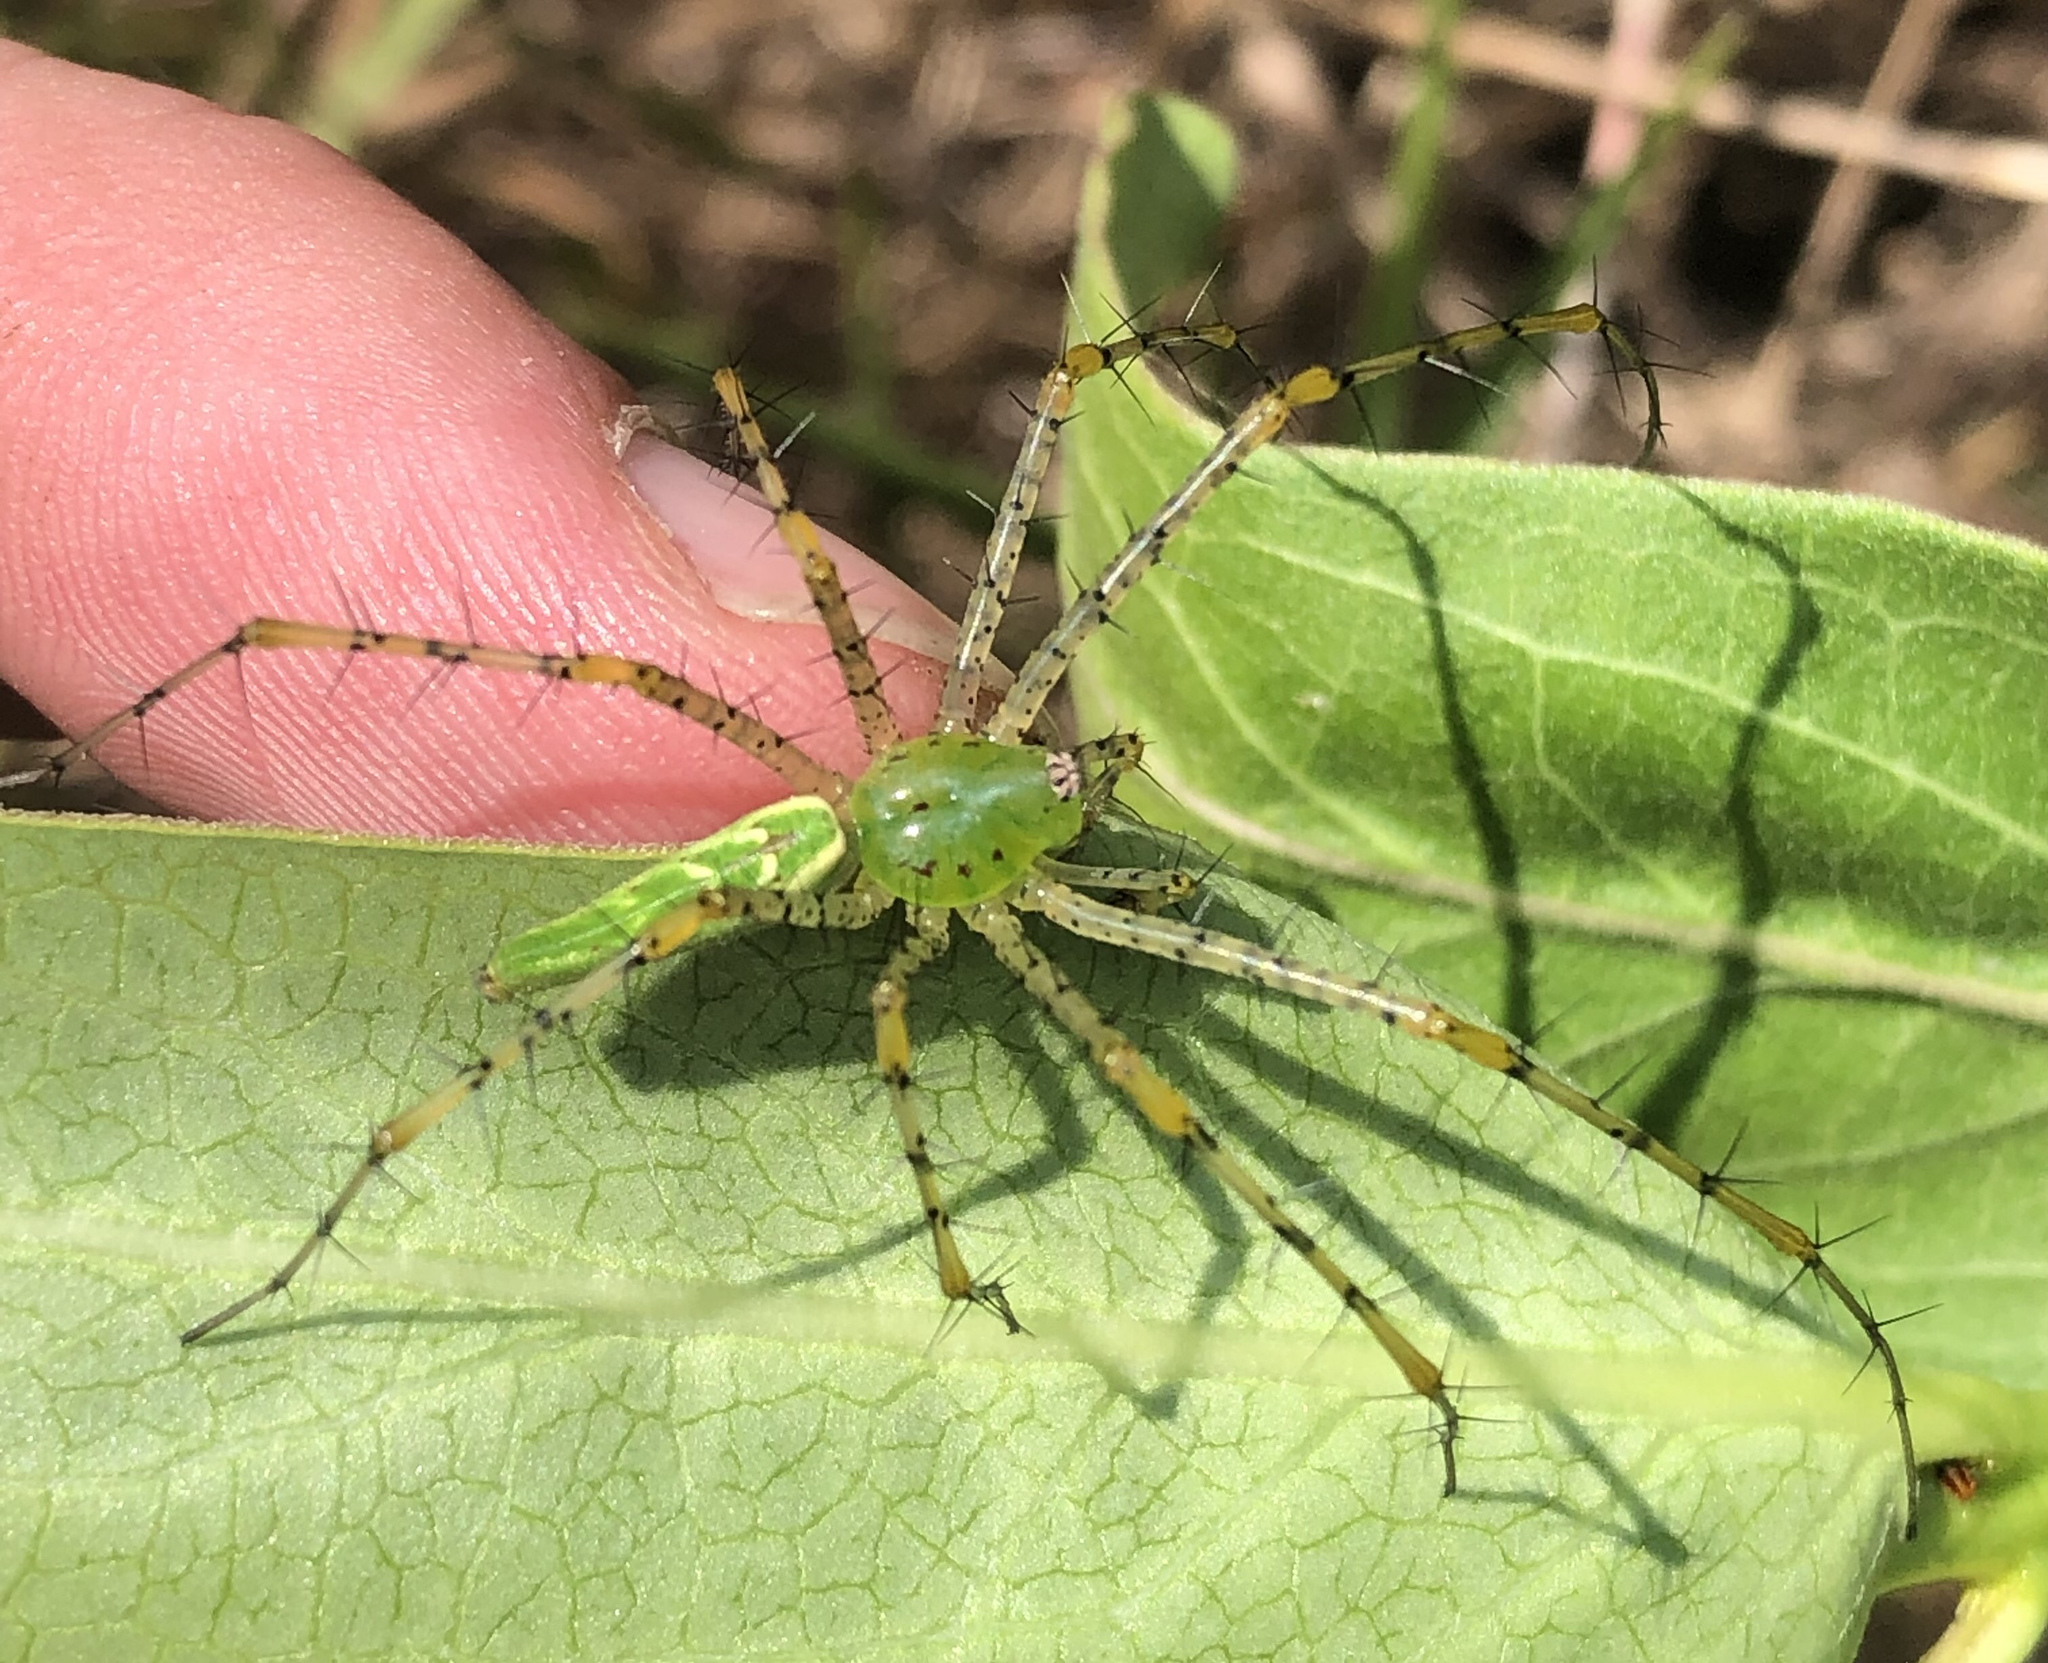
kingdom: Animalia
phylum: Arthropoda
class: Arachnida
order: Araneae
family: Oxyopidae
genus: Peucetia
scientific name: Peucetia viridans
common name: Lynx spiders
